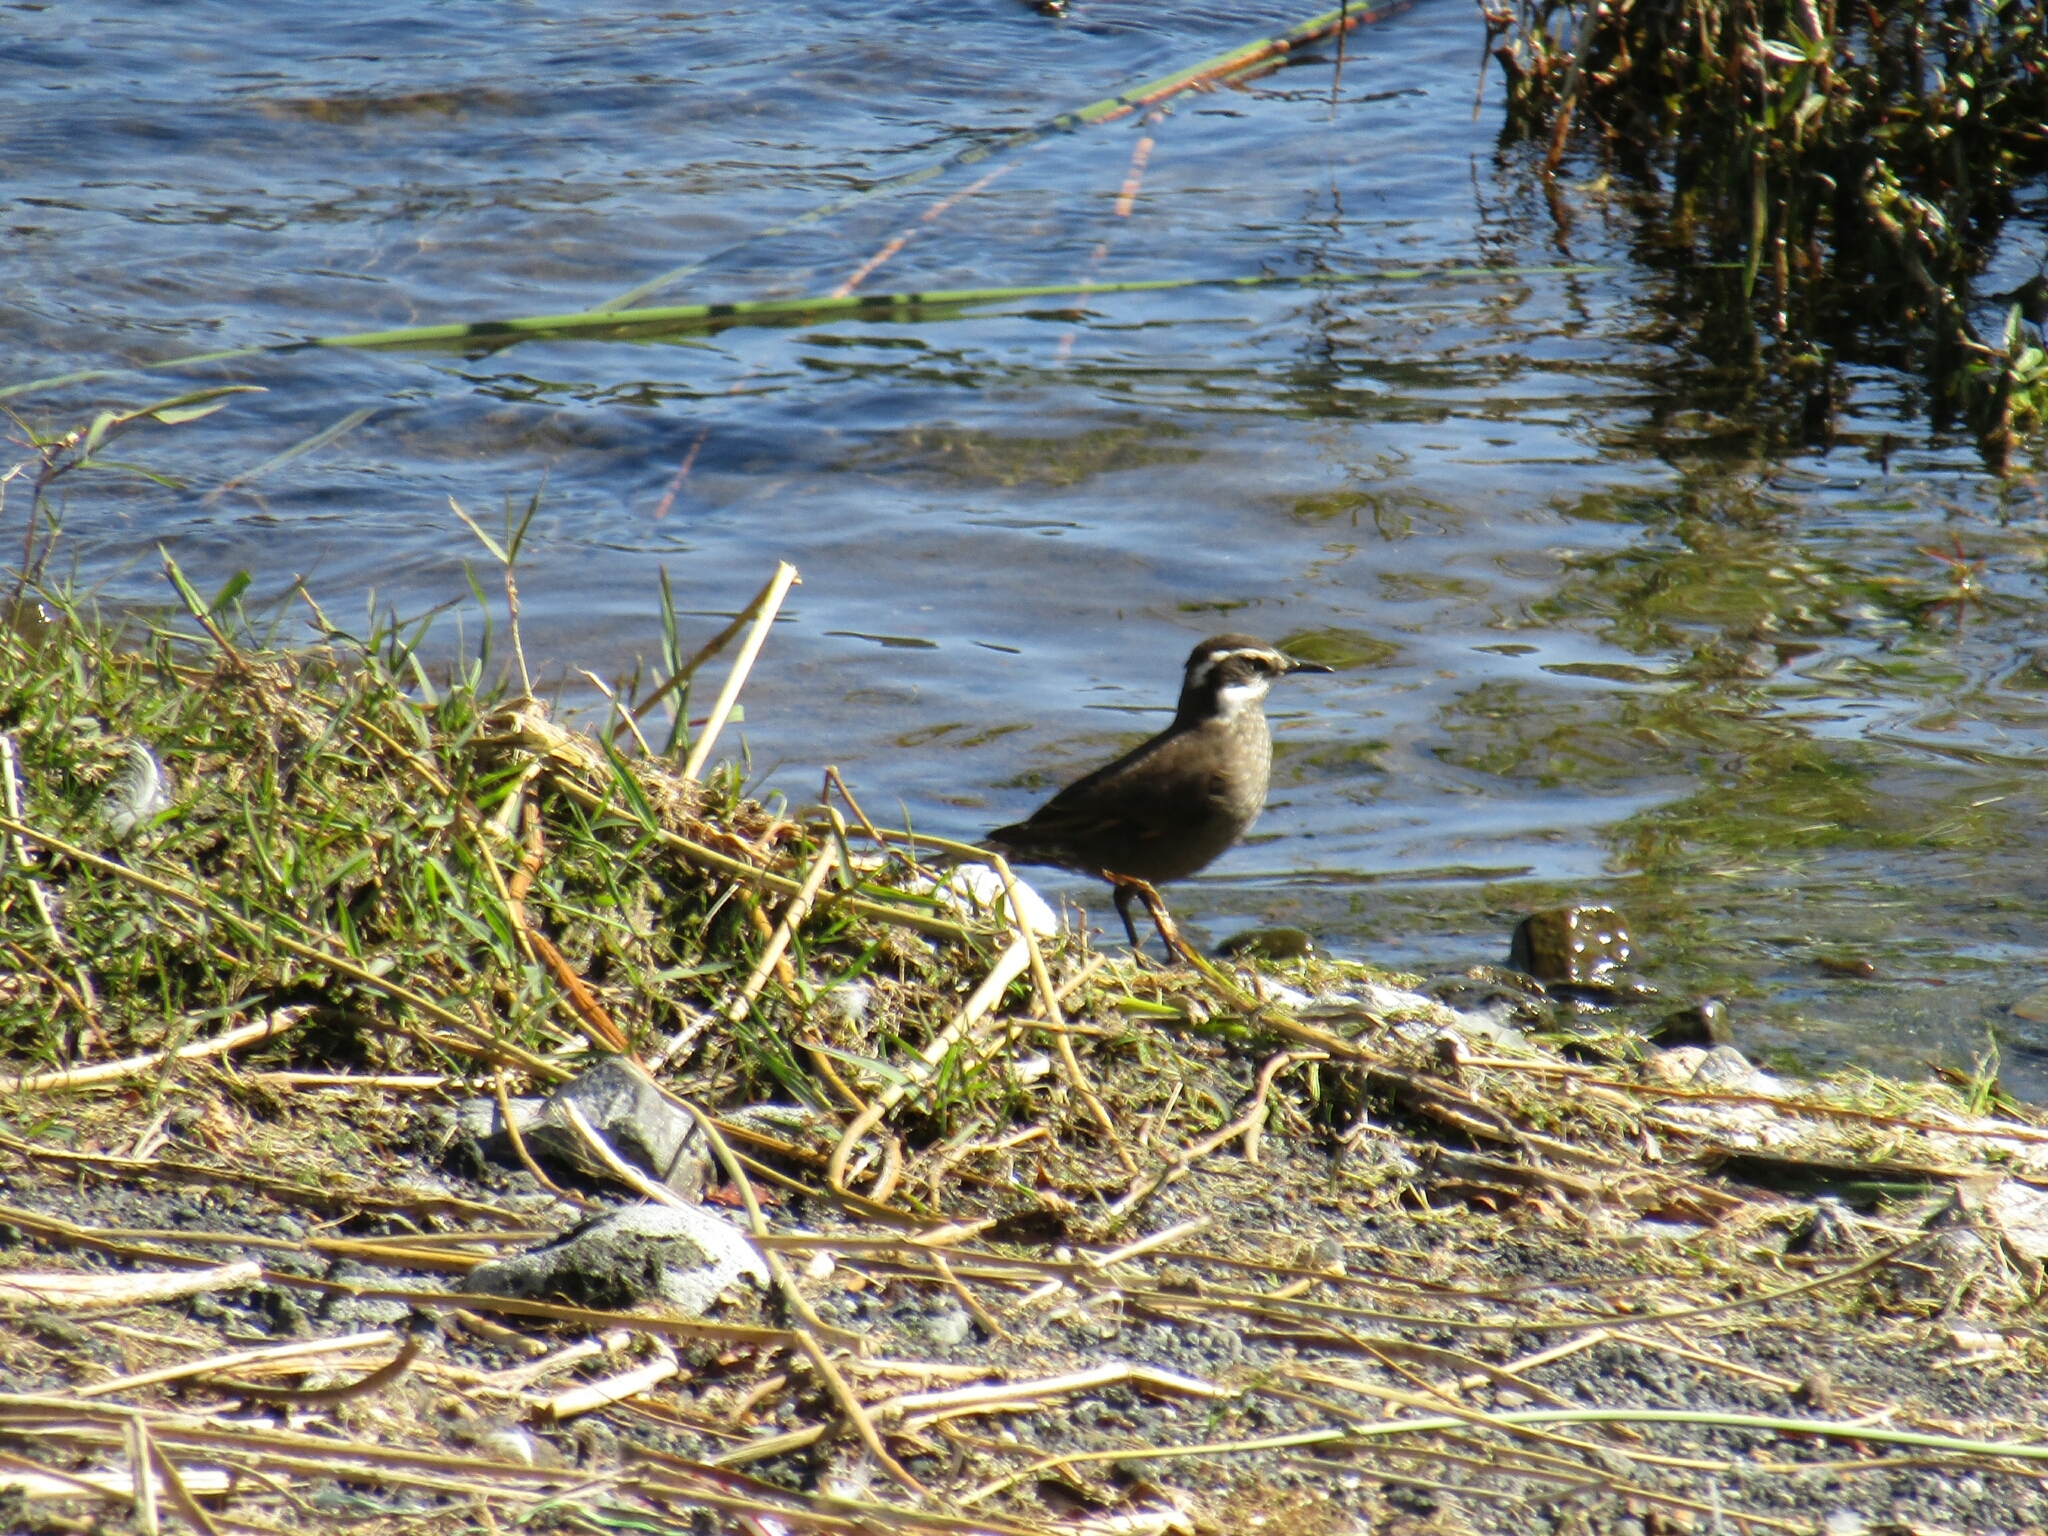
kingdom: Animalia
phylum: Chordata
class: Aves
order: Passeriformes
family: Furnariidae
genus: Cinclodes
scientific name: Cinclodes patagonicus
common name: Dark-bellied cinclodes
